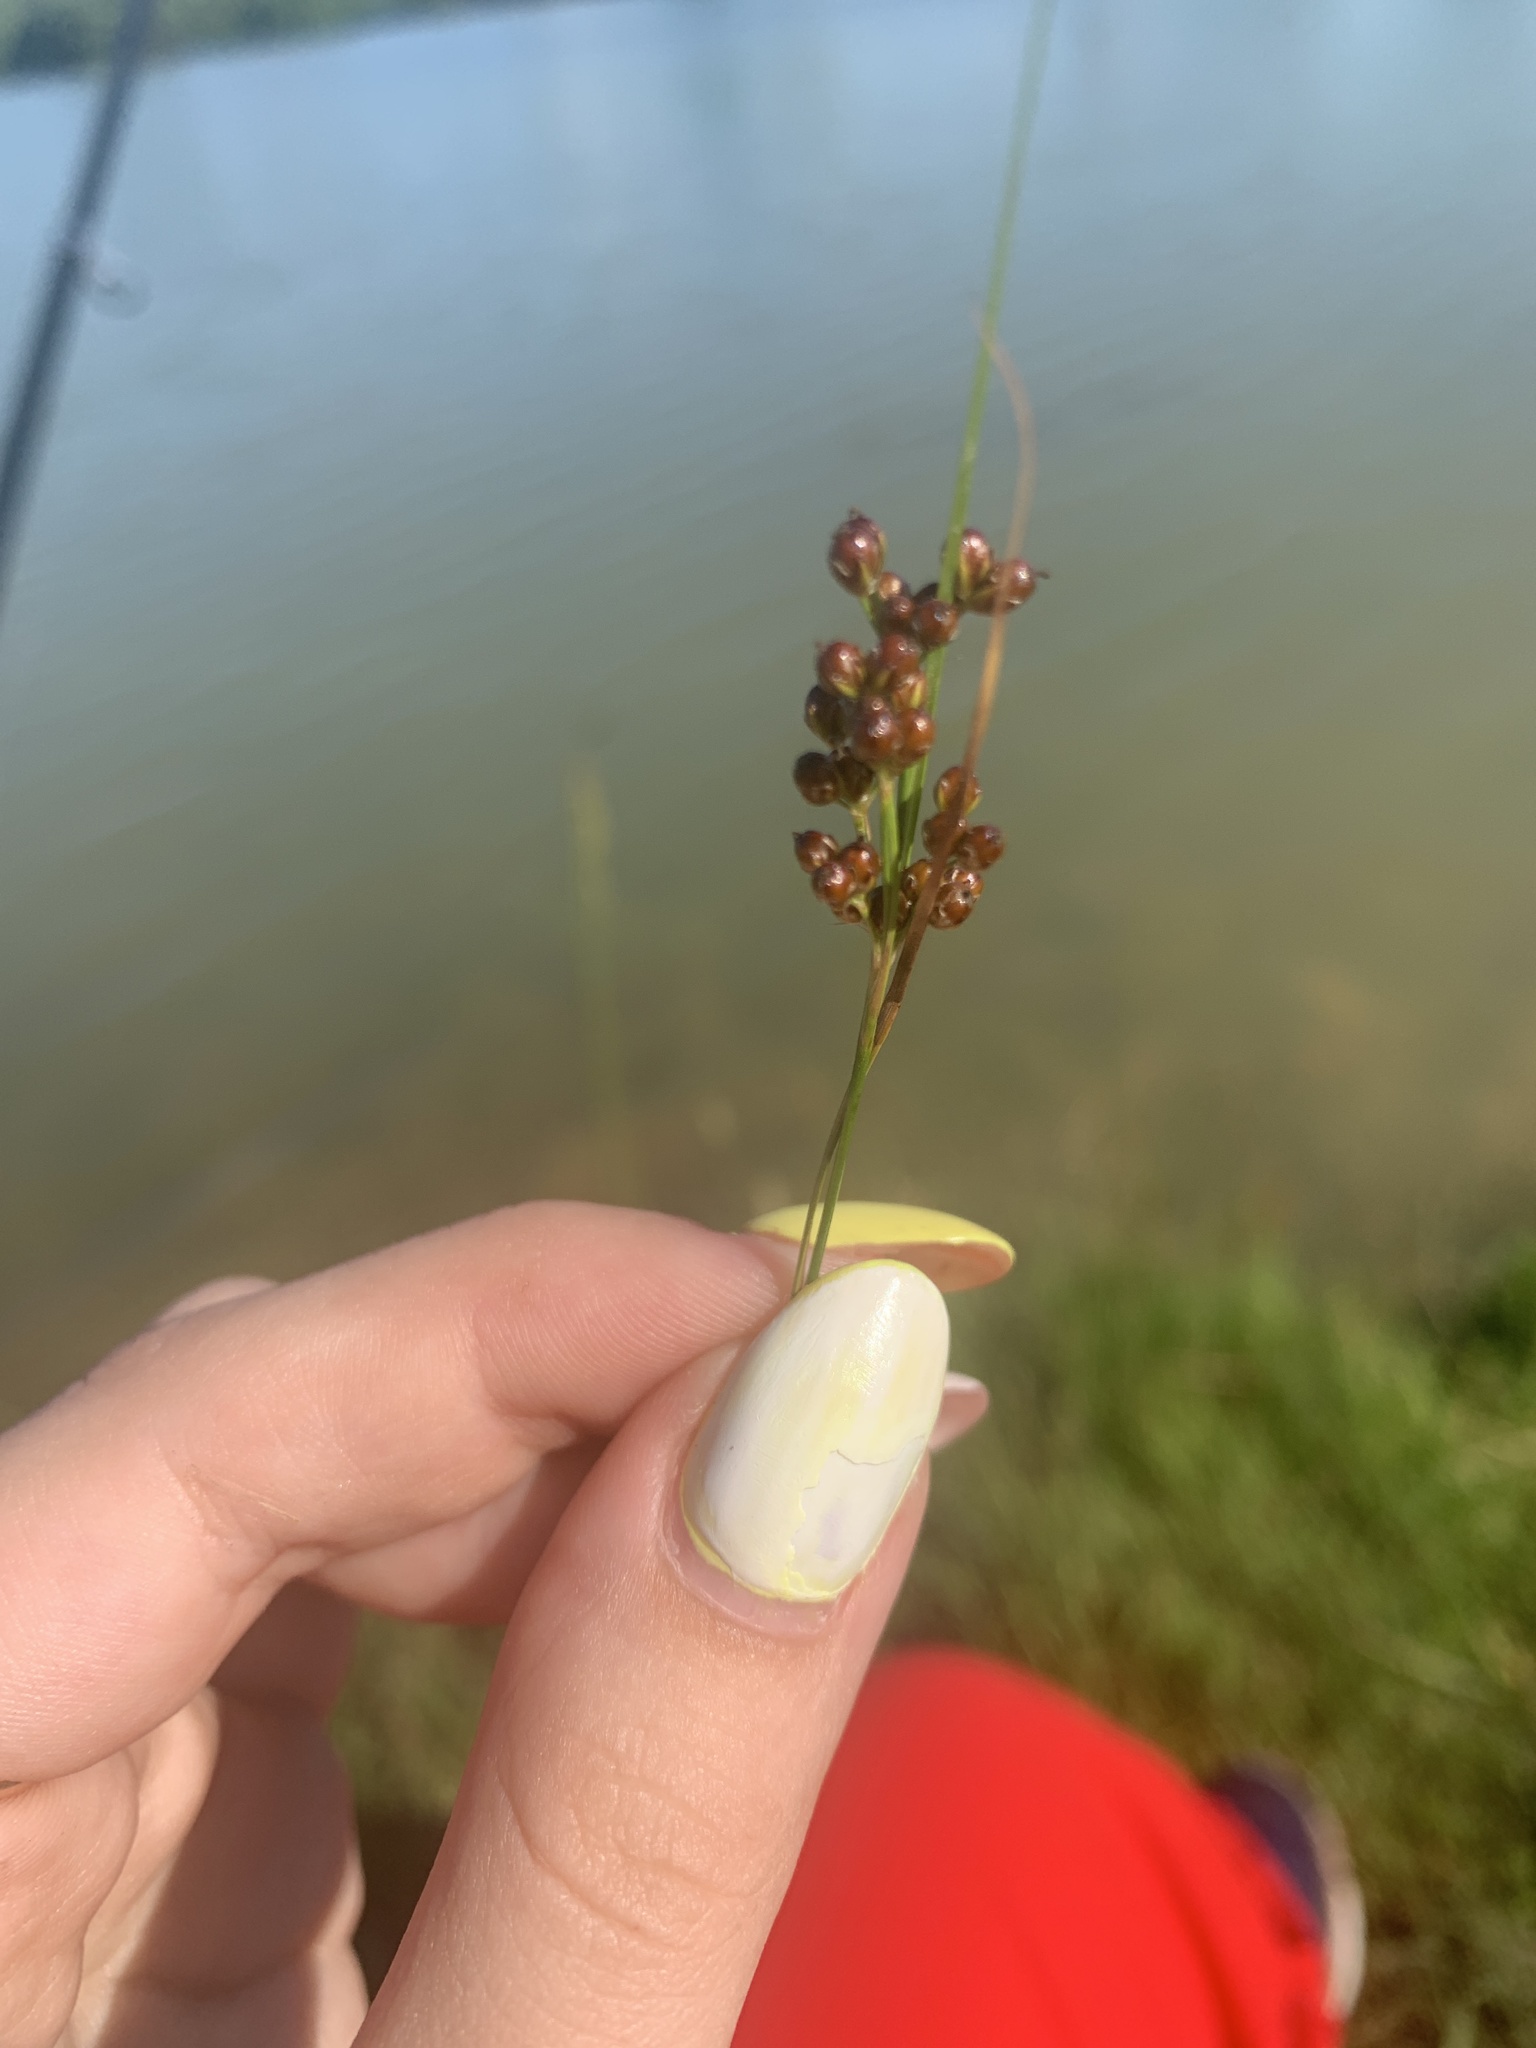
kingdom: Plantae
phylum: Tracheophyta
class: Liliopsida
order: Poales
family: Juncaceae
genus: Juncus
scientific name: Juncus compressus
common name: Round-fruited rush
